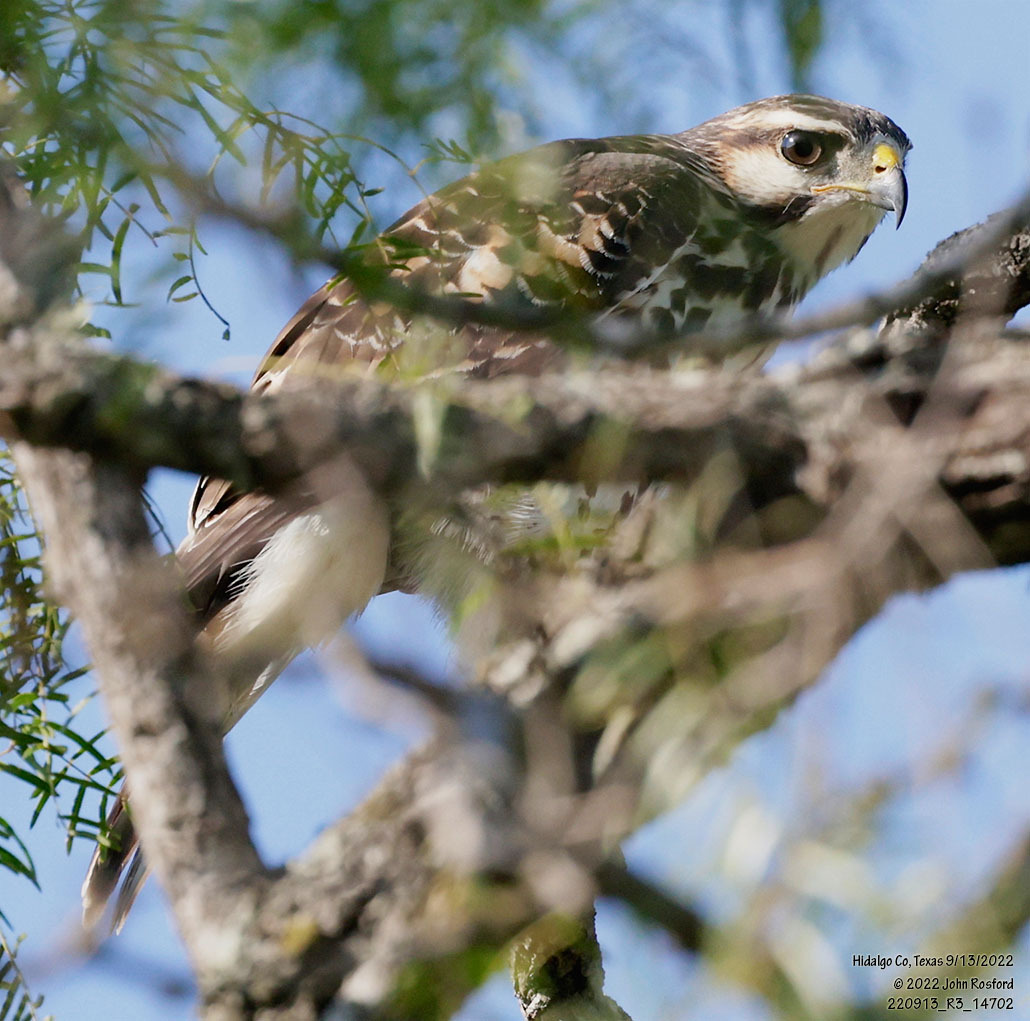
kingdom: Animalia
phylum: Chordata
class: Aves
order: Accipitriformes
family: Accipitridae
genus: Buteo
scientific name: Buteo nitidus
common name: Grey-lined hawk
